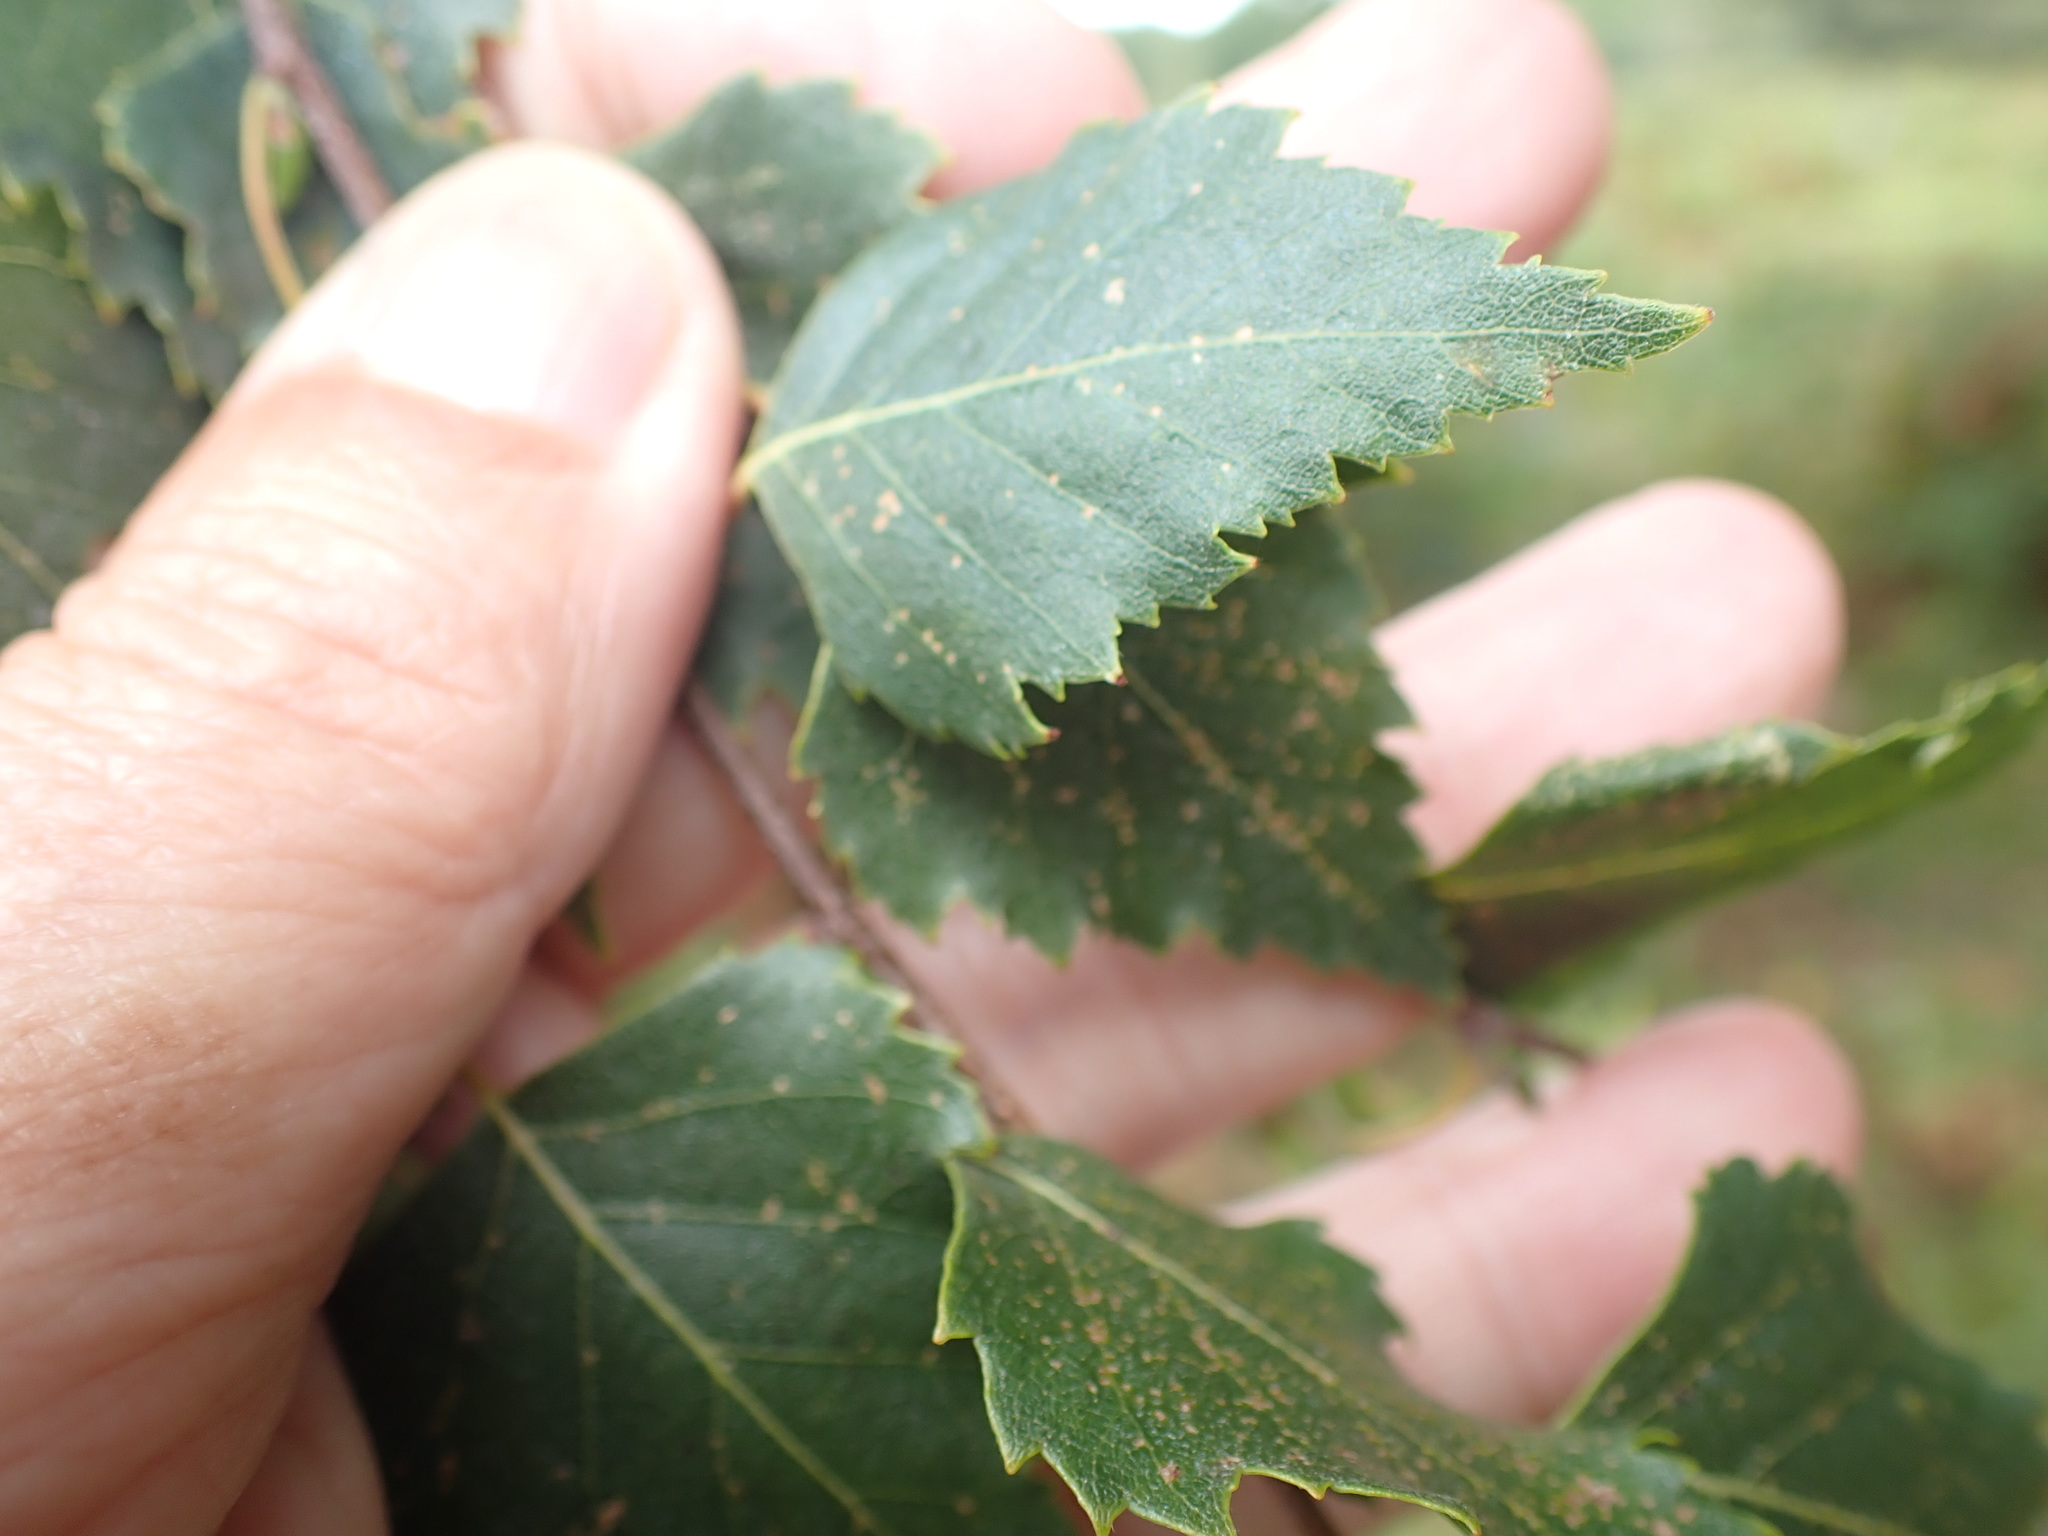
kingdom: Plantae
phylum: Tracheophyta
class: Magnoliopsida
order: Fagales
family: Betulaceae
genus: Betula
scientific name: Betula pendula
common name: Silver birch
